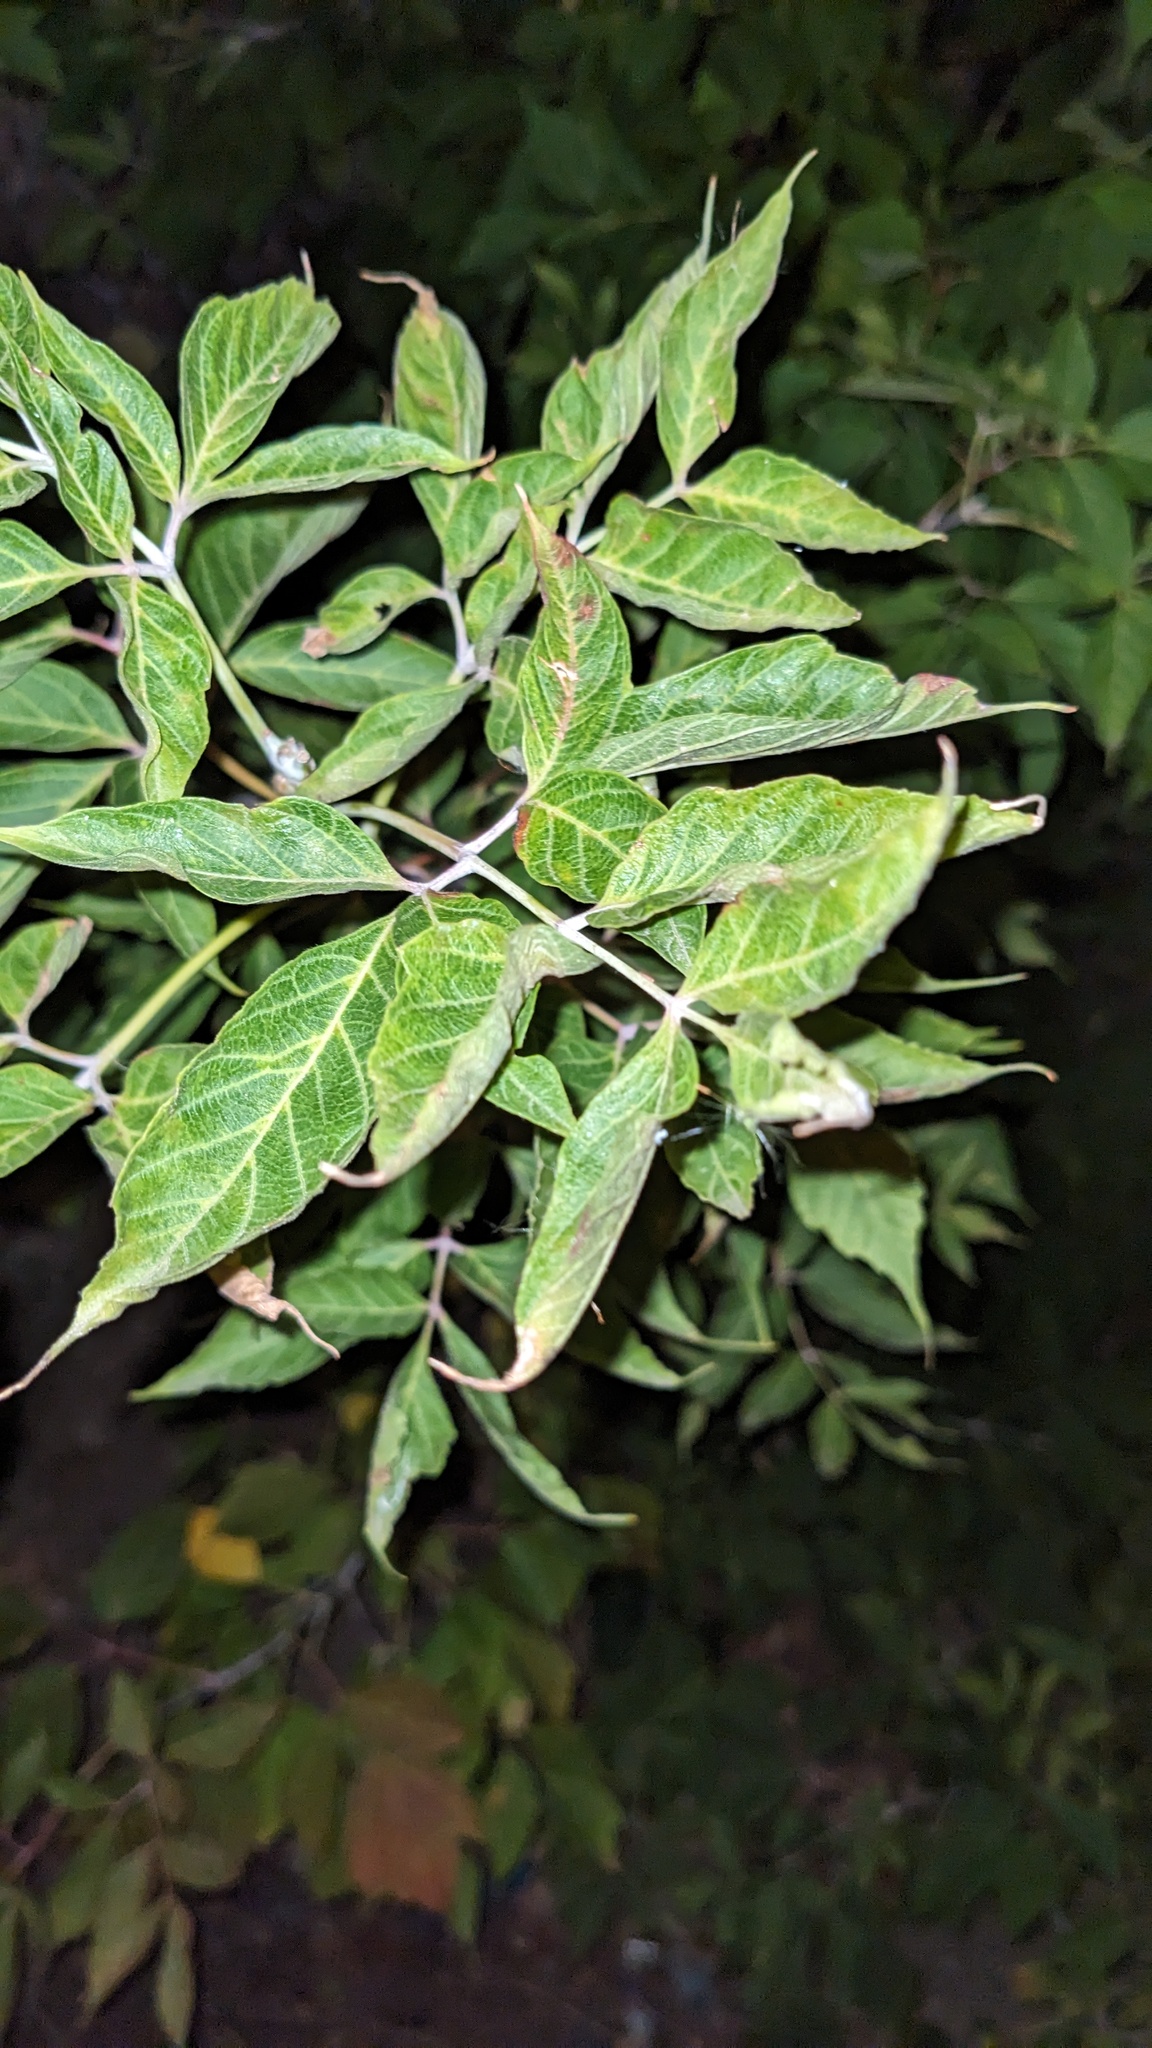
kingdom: Plantae
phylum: Tracheophyta
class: Magnoliopsida
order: Sapindales
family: Sapindaceae
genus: Acer
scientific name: Acer negundo
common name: Ashleaf maple
